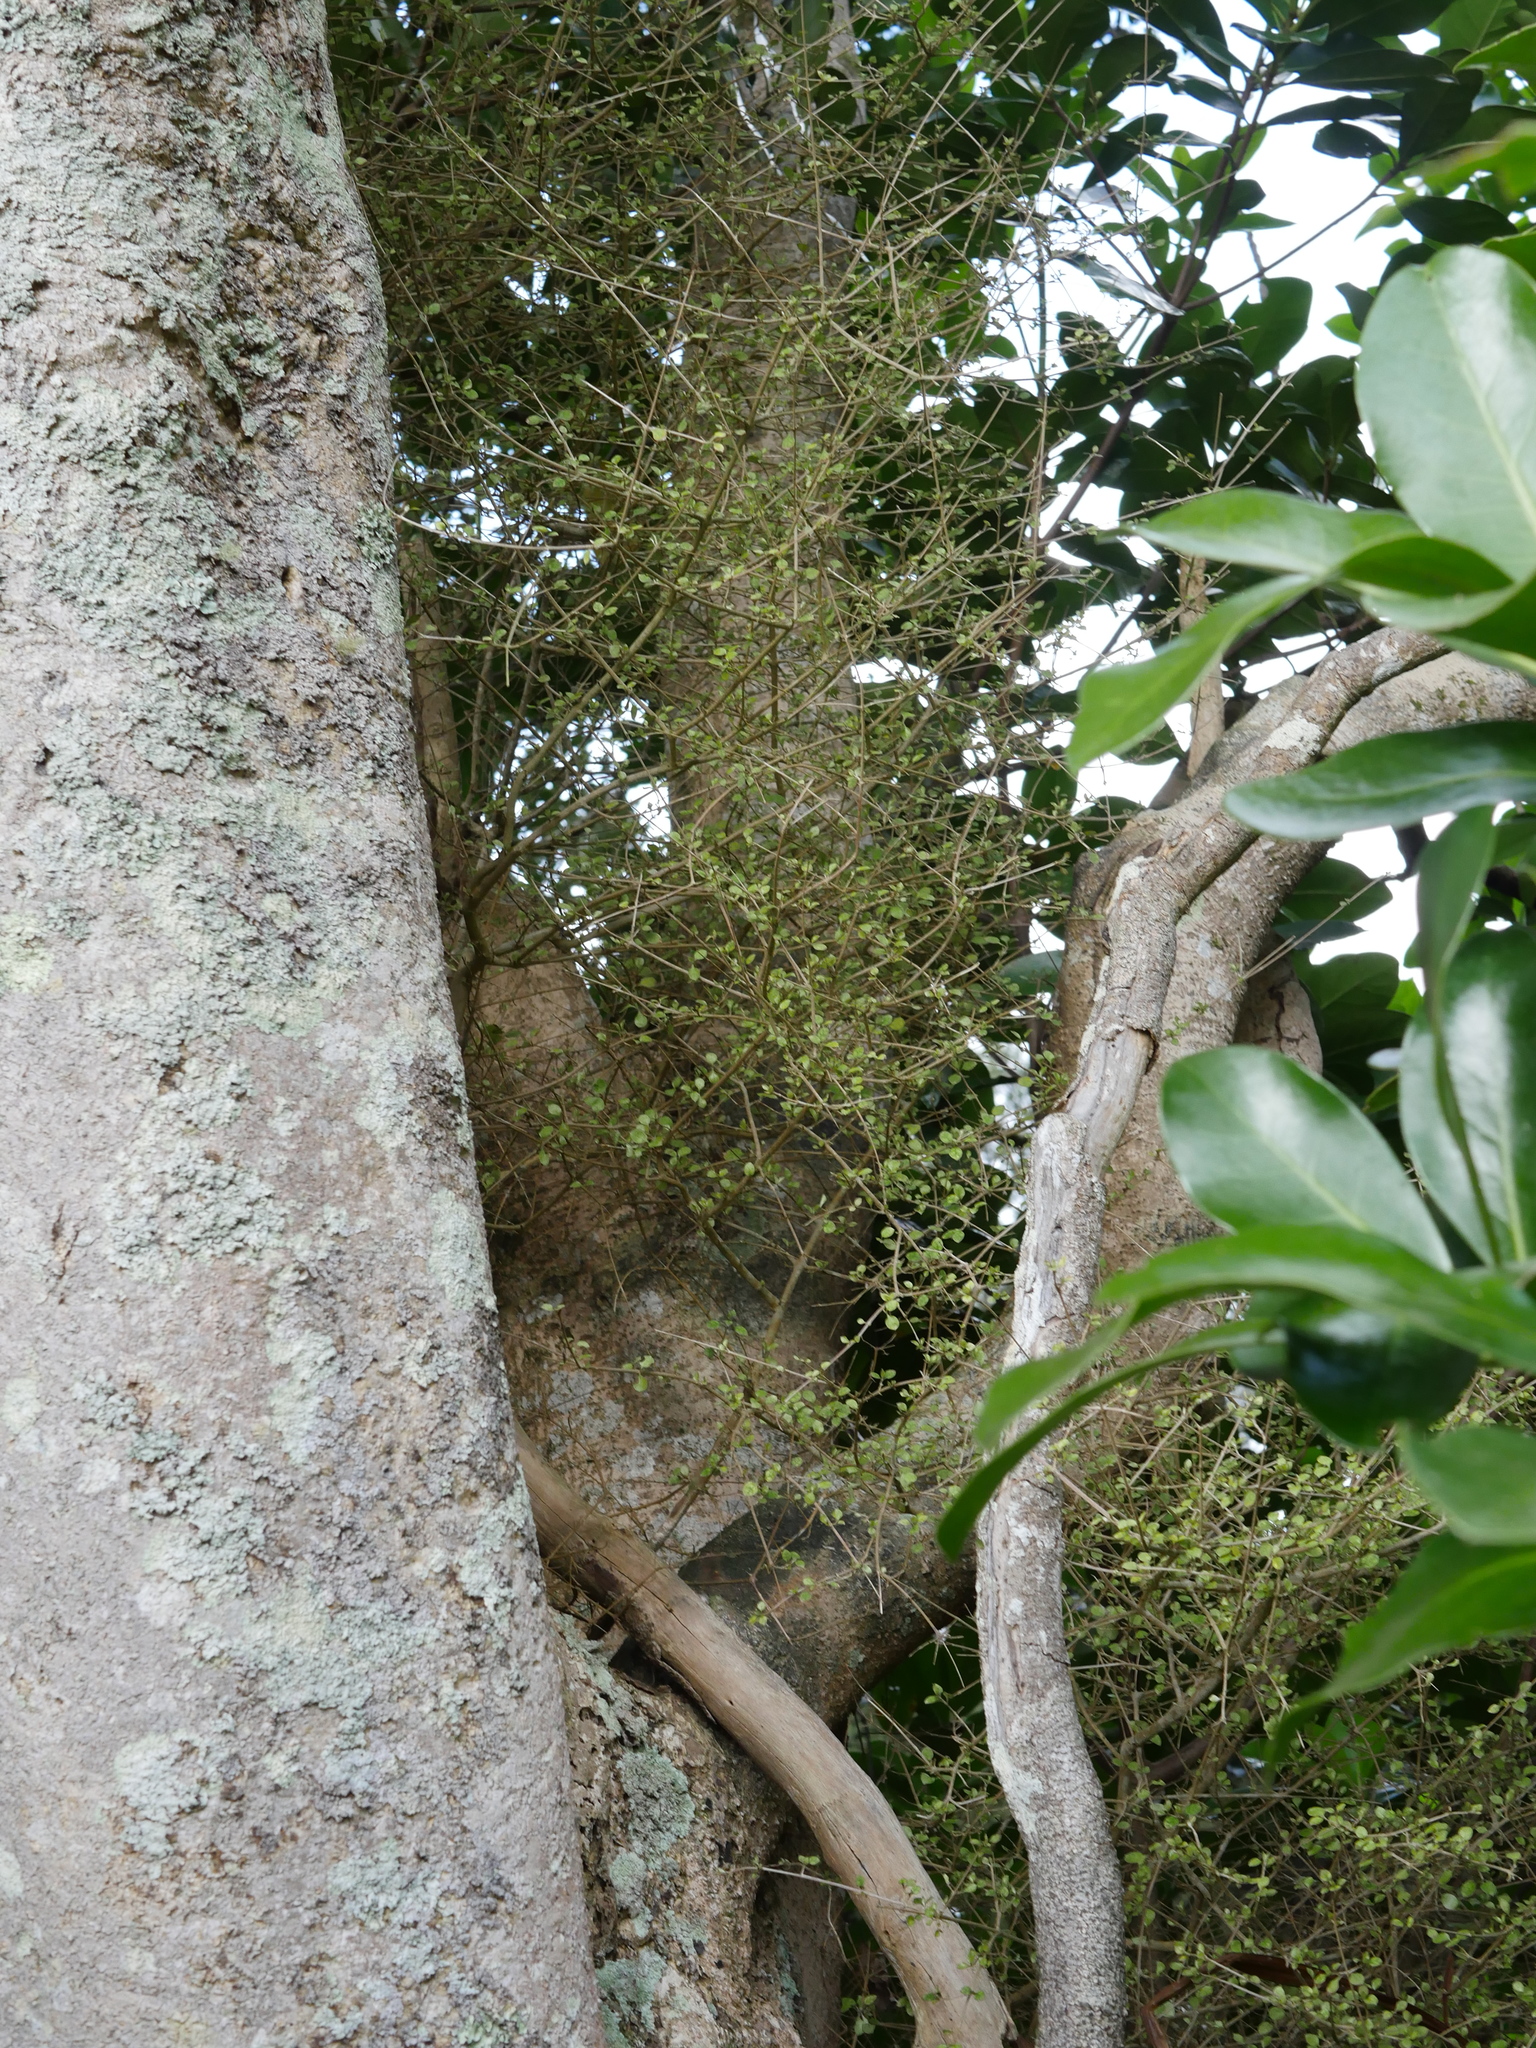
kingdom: Plantae
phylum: Tracheophyta
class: Magnoliopsida
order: Gentianales
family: Rubiaceae
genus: Coprosma
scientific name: Coprosma areolata
